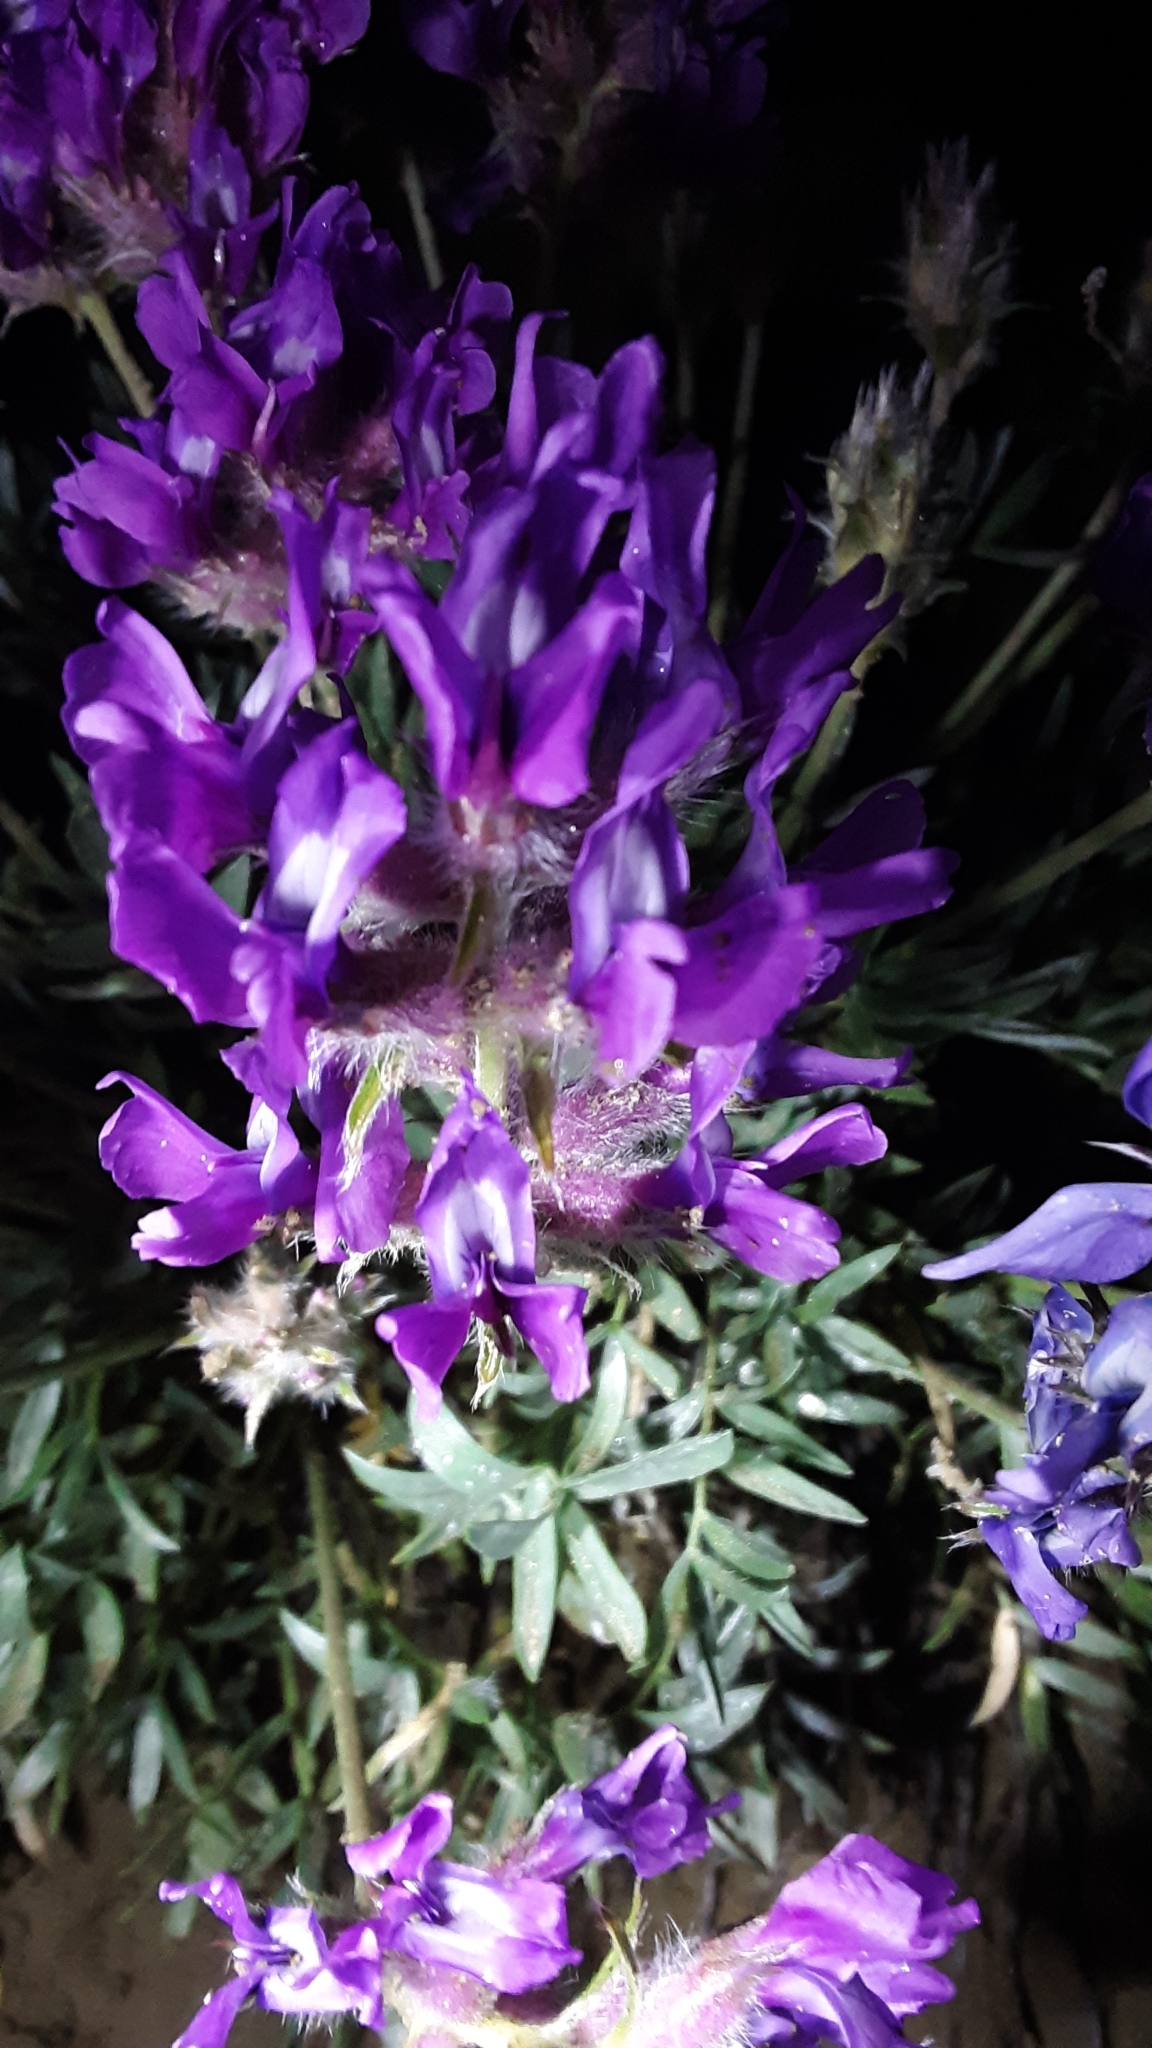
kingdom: Plantae
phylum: Tracheophyta
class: Magnoliopsida
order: Fabales
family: Fabaceae
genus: Oxytropis
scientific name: Oxytropis besseyi
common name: Bessey's locoweed
